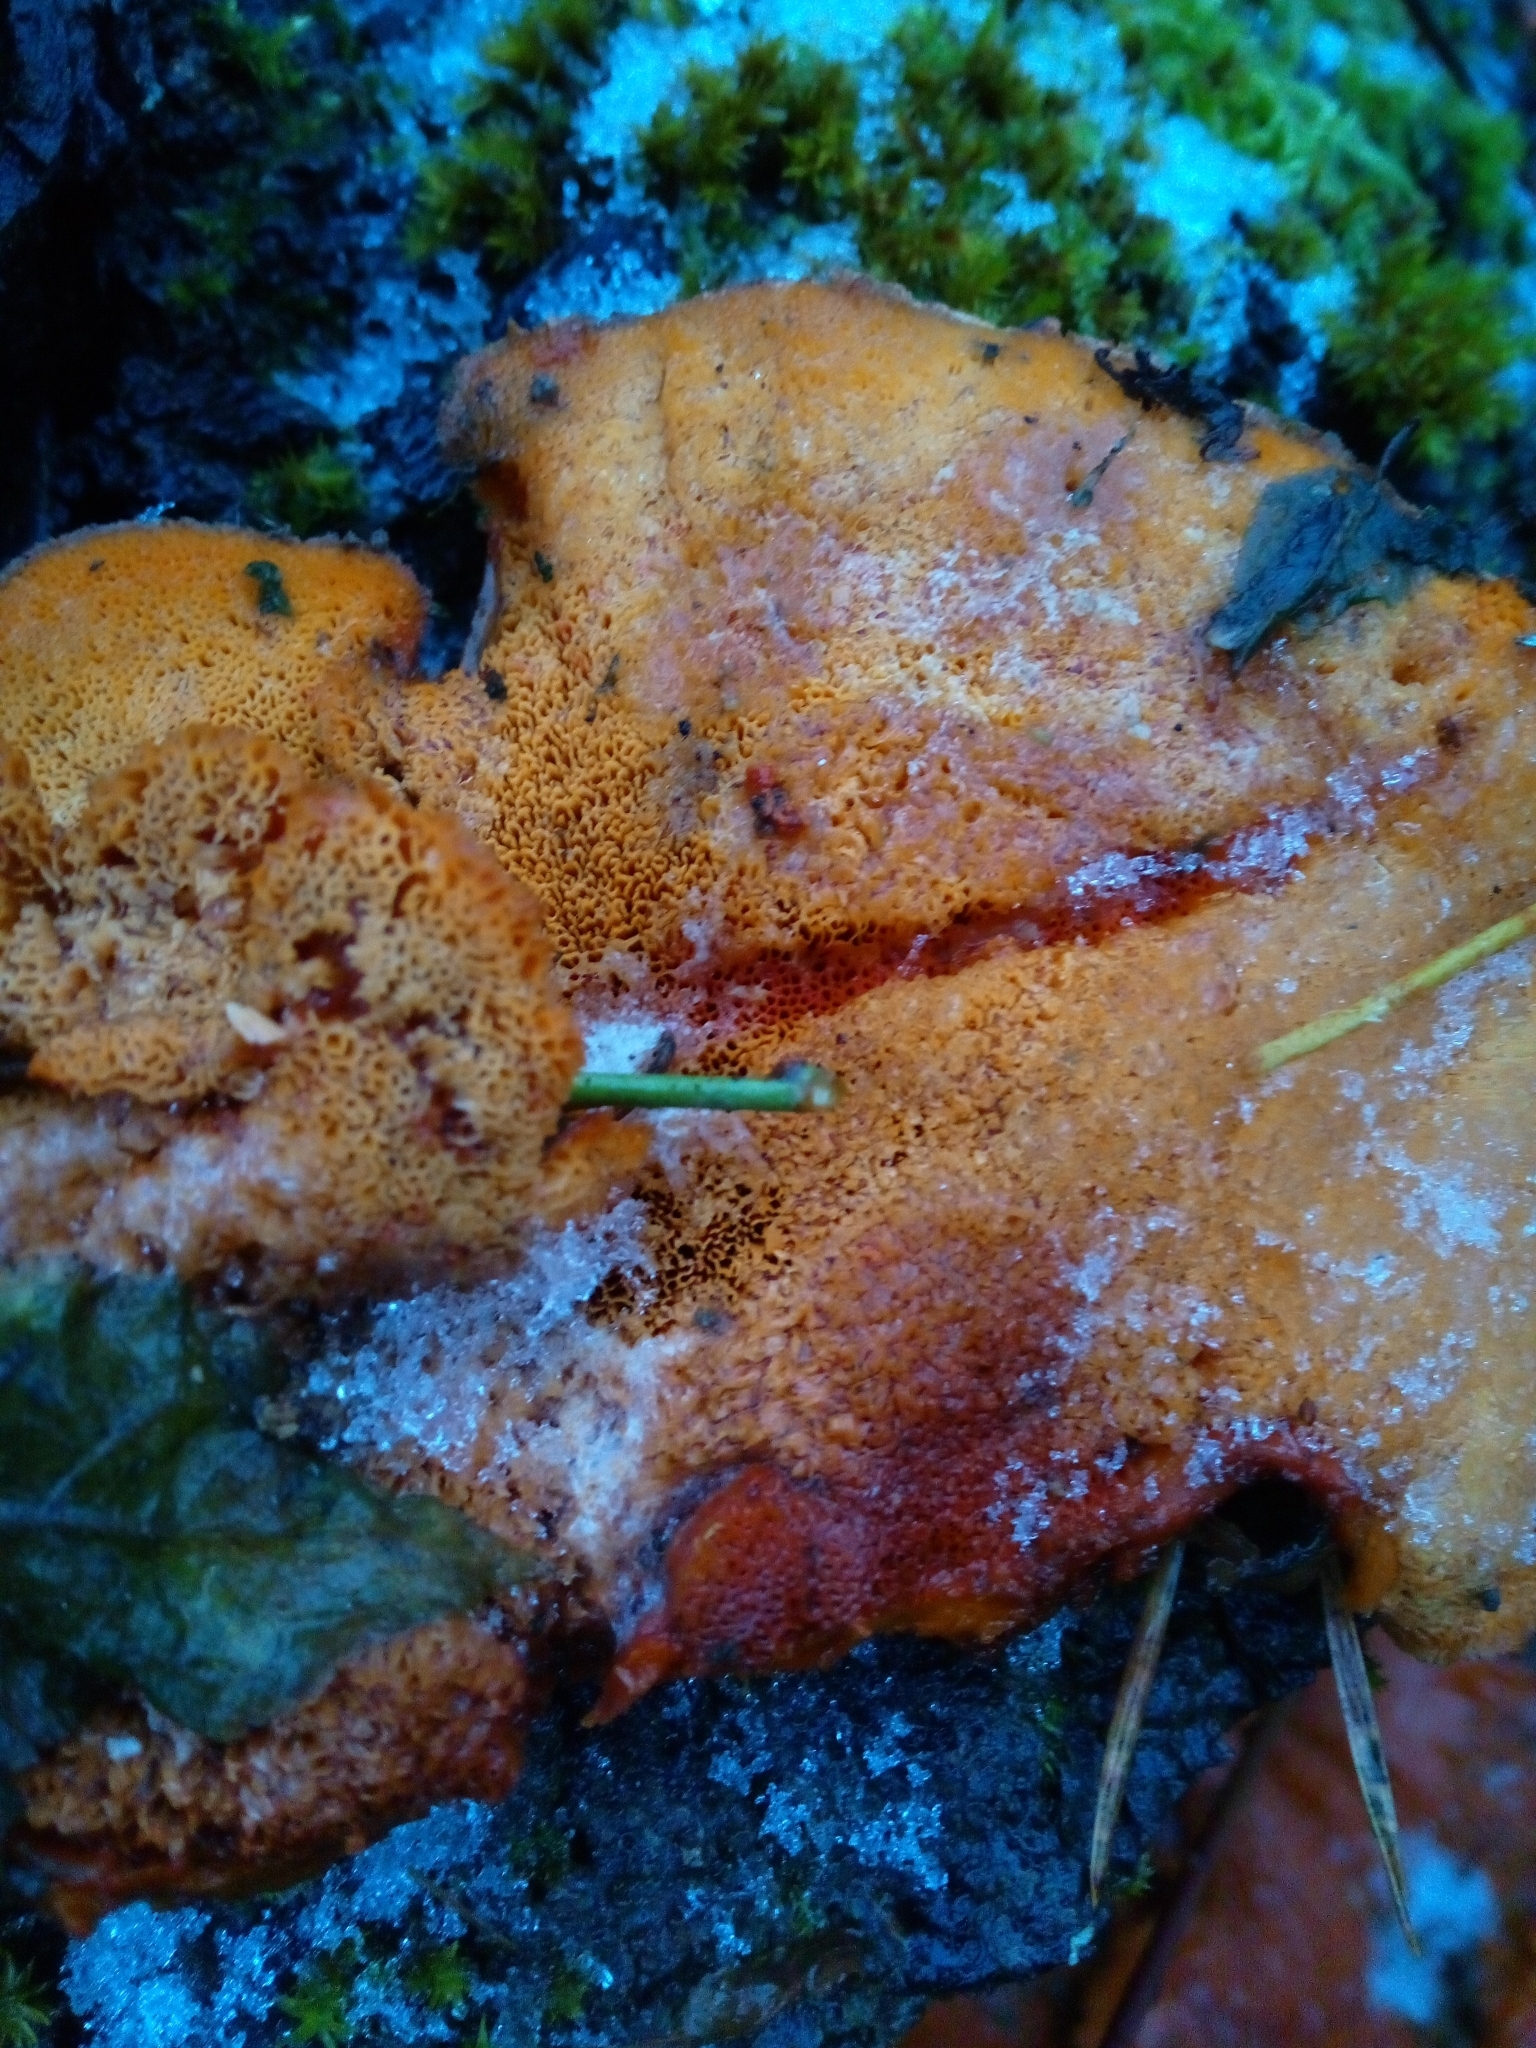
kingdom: Fungi
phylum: Basidiomycota
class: Agaricomycetes
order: Polyporales
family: Polyporaceae
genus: Trametes
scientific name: Trametes cinnabarina
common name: Northern cinnabar polypore
